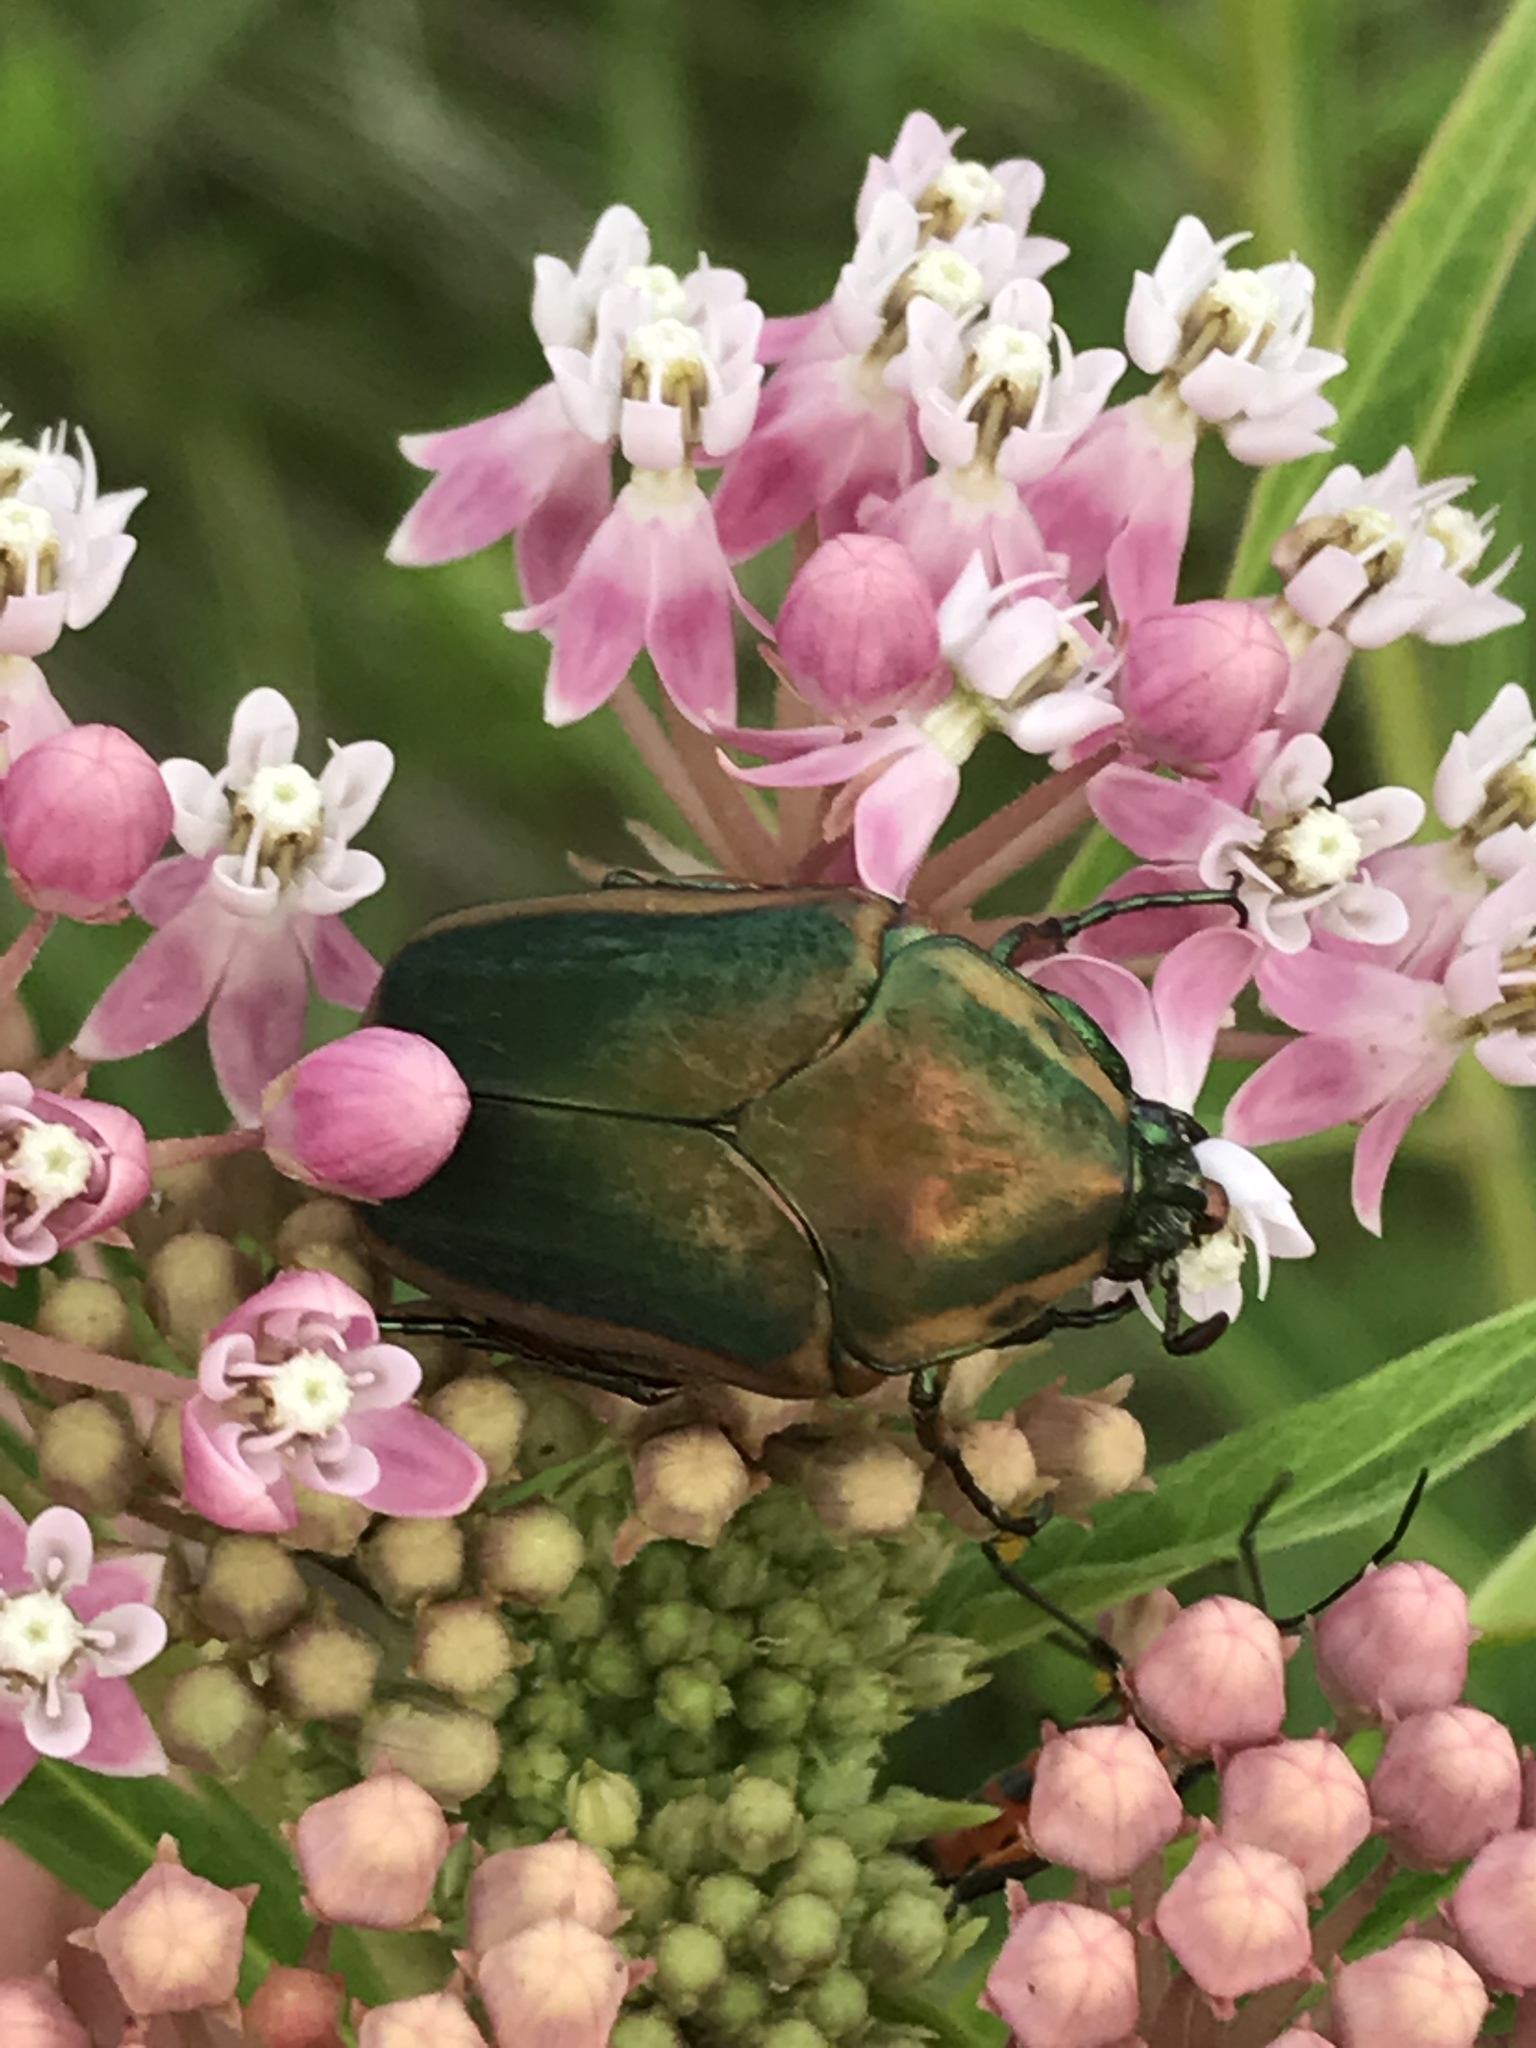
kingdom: Animalia
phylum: Arthropoda
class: Insecta
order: Coleoptera
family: Scarabaeidae
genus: Cotinis
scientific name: Cotinis nitida
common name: Common green june beetle
